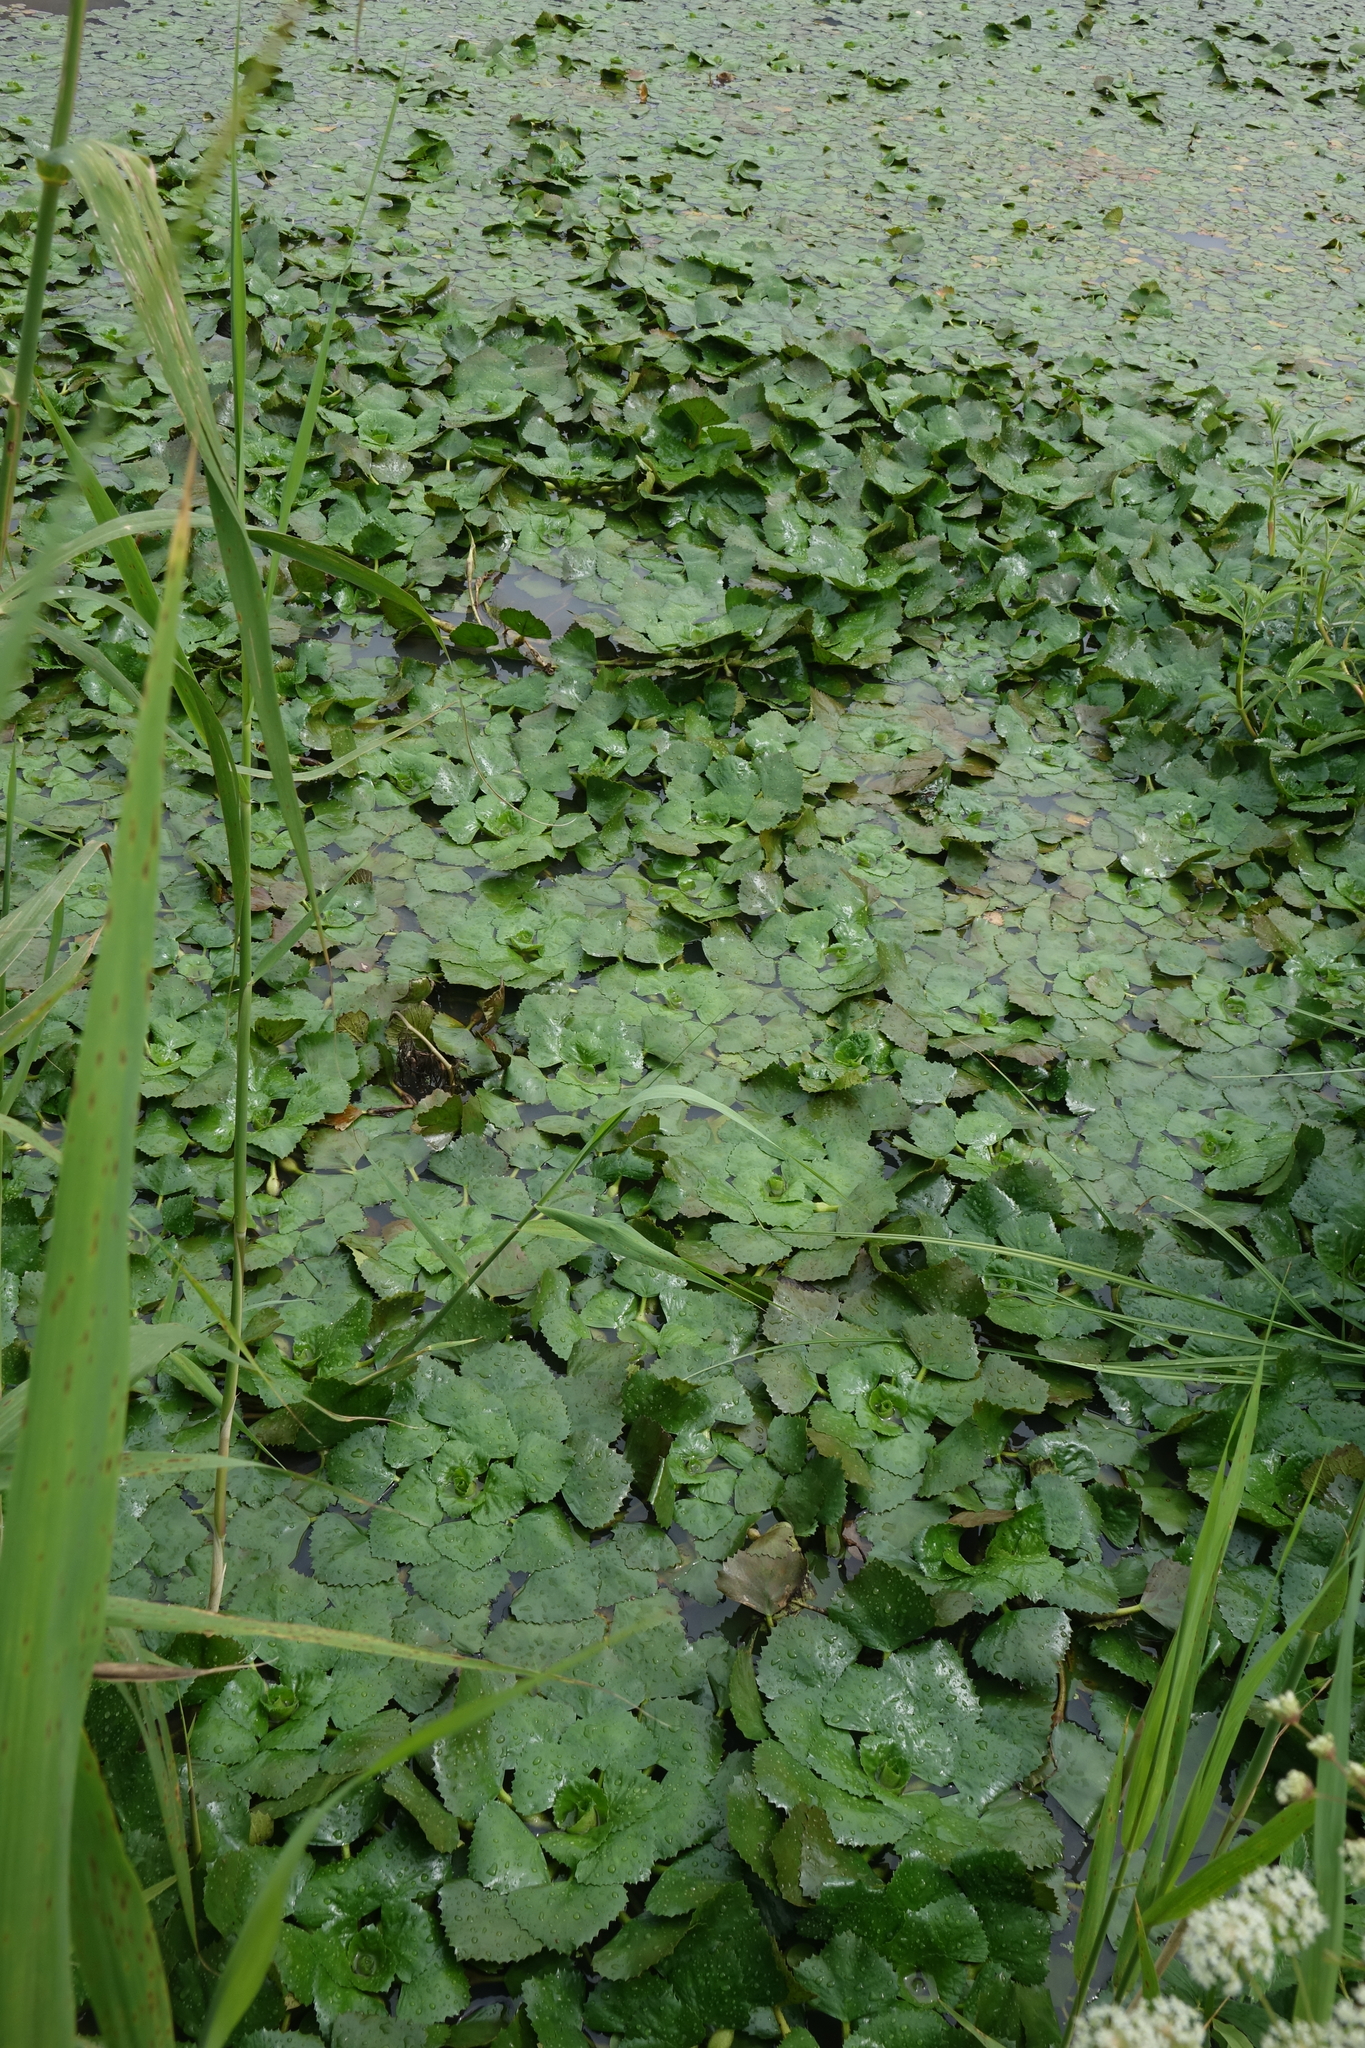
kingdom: Plantae
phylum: Tracheophyta
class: Magnoliopsida
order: Myrtales
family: Lythraceae
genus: Trapa
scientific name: Trapa natans
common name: Water chestnut
